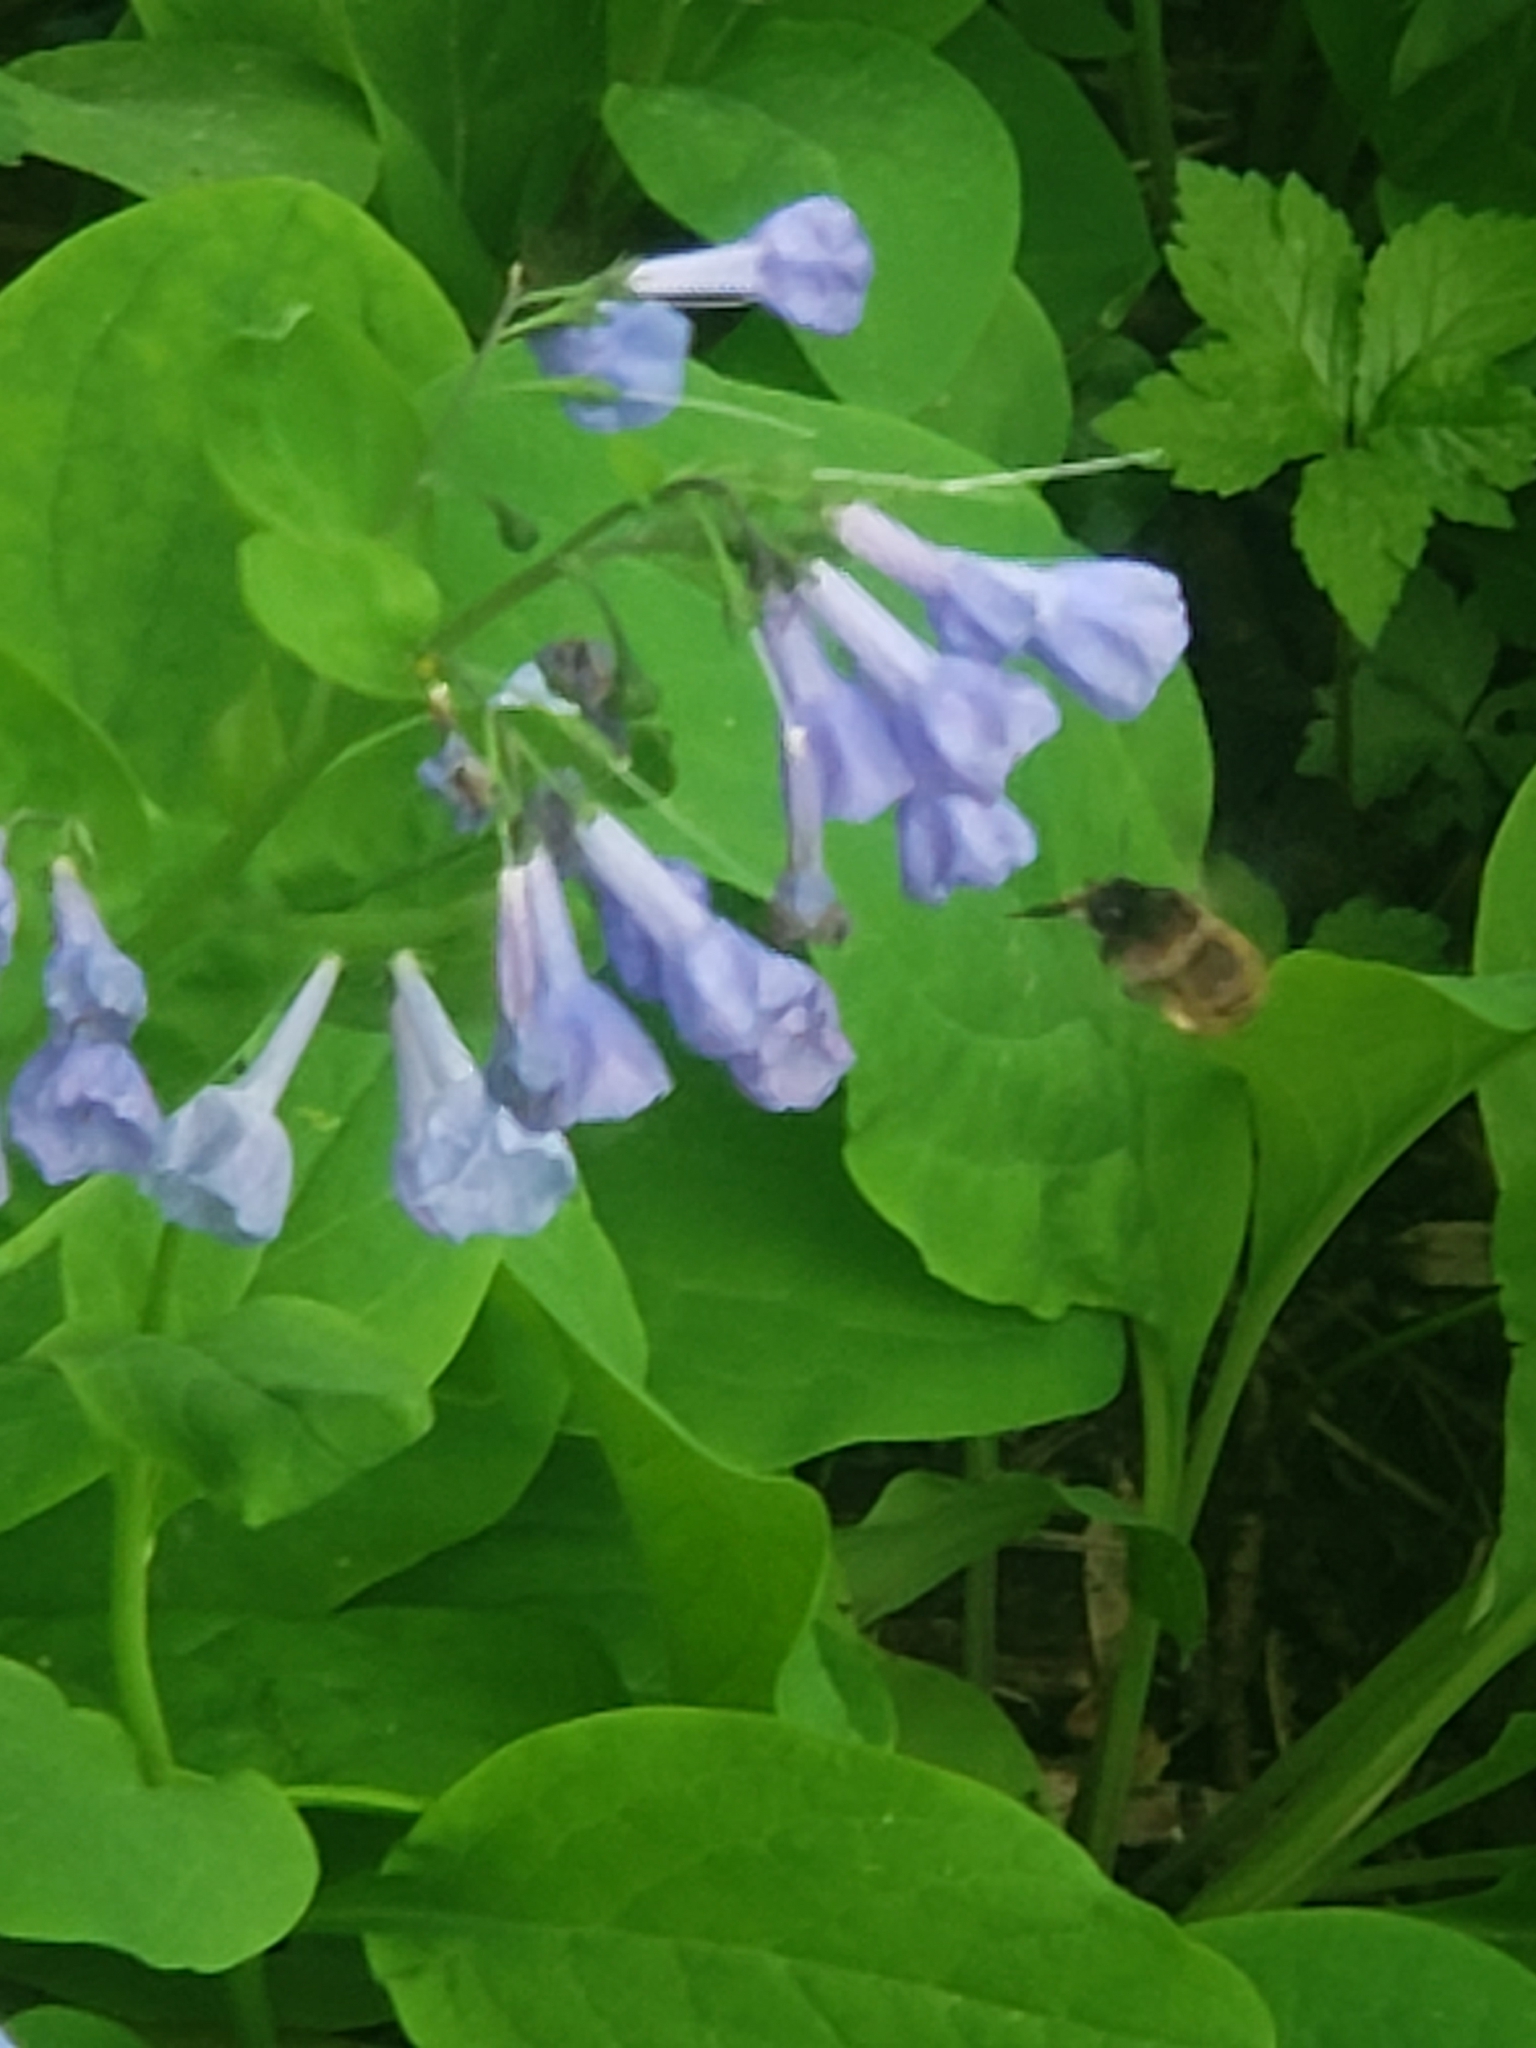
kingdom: Animalia
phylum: Arthropoda
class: Insecta
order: Hymenoptera
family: Apidae
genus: Anthophora
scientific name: Anthophora villosula
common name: Asian shaggy digger
